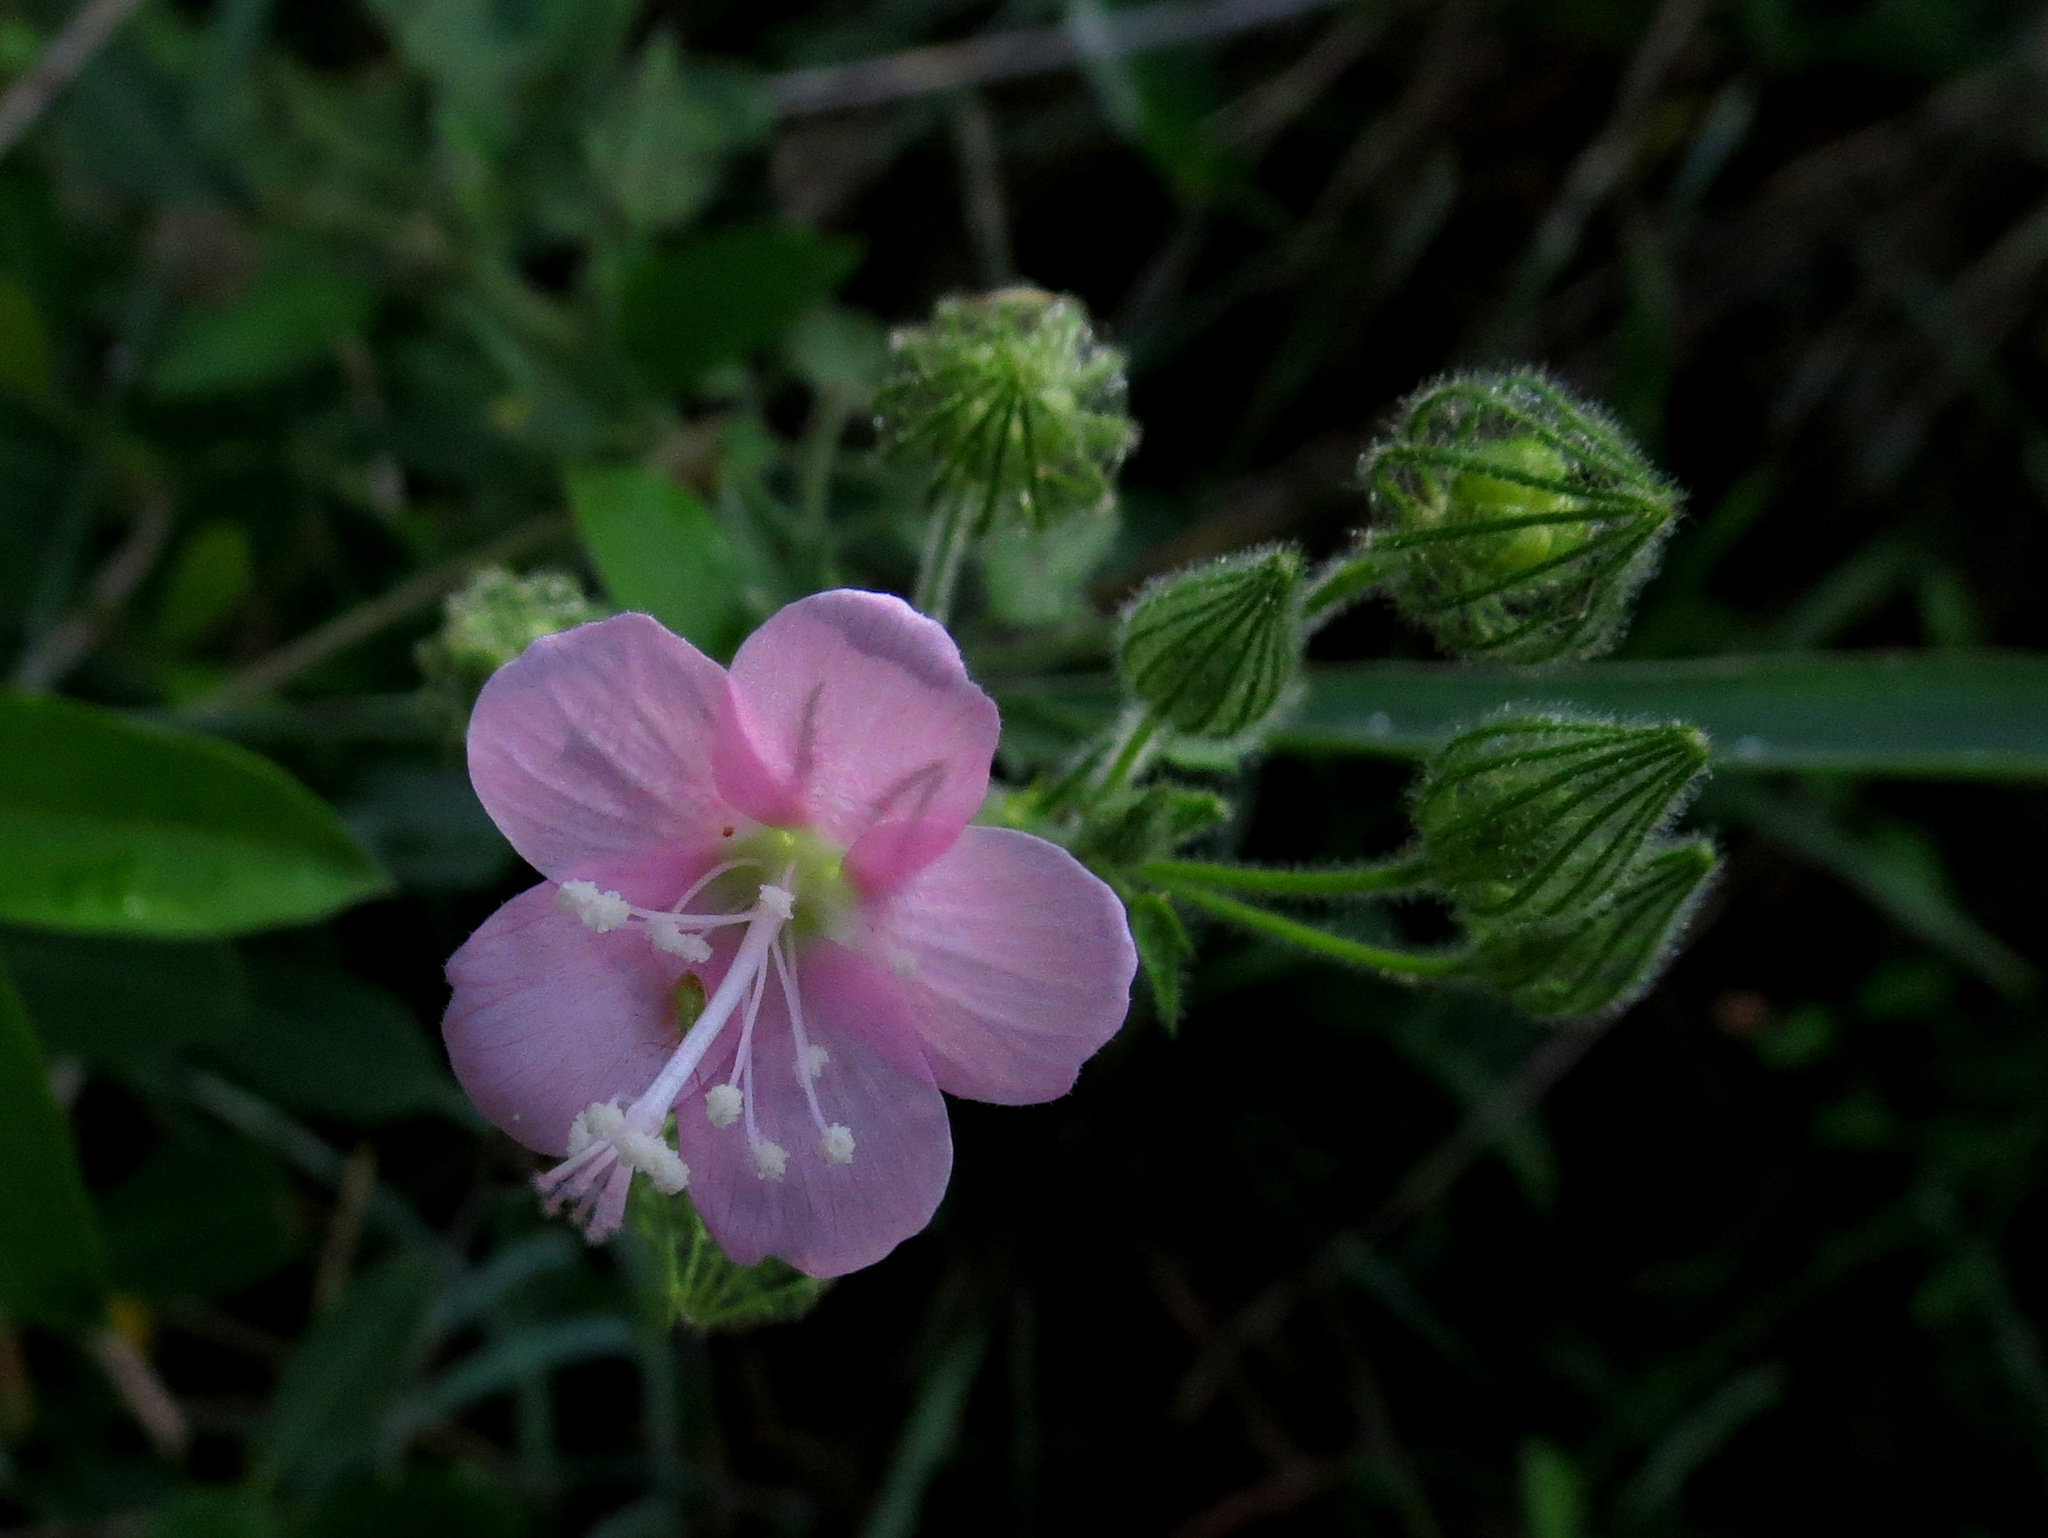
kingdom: Plantae
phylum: Tracheophyta
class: Magnoliopsida
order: Malvales
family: Malvaceae
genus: Pavonia
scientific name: Pavonia zeylonica
